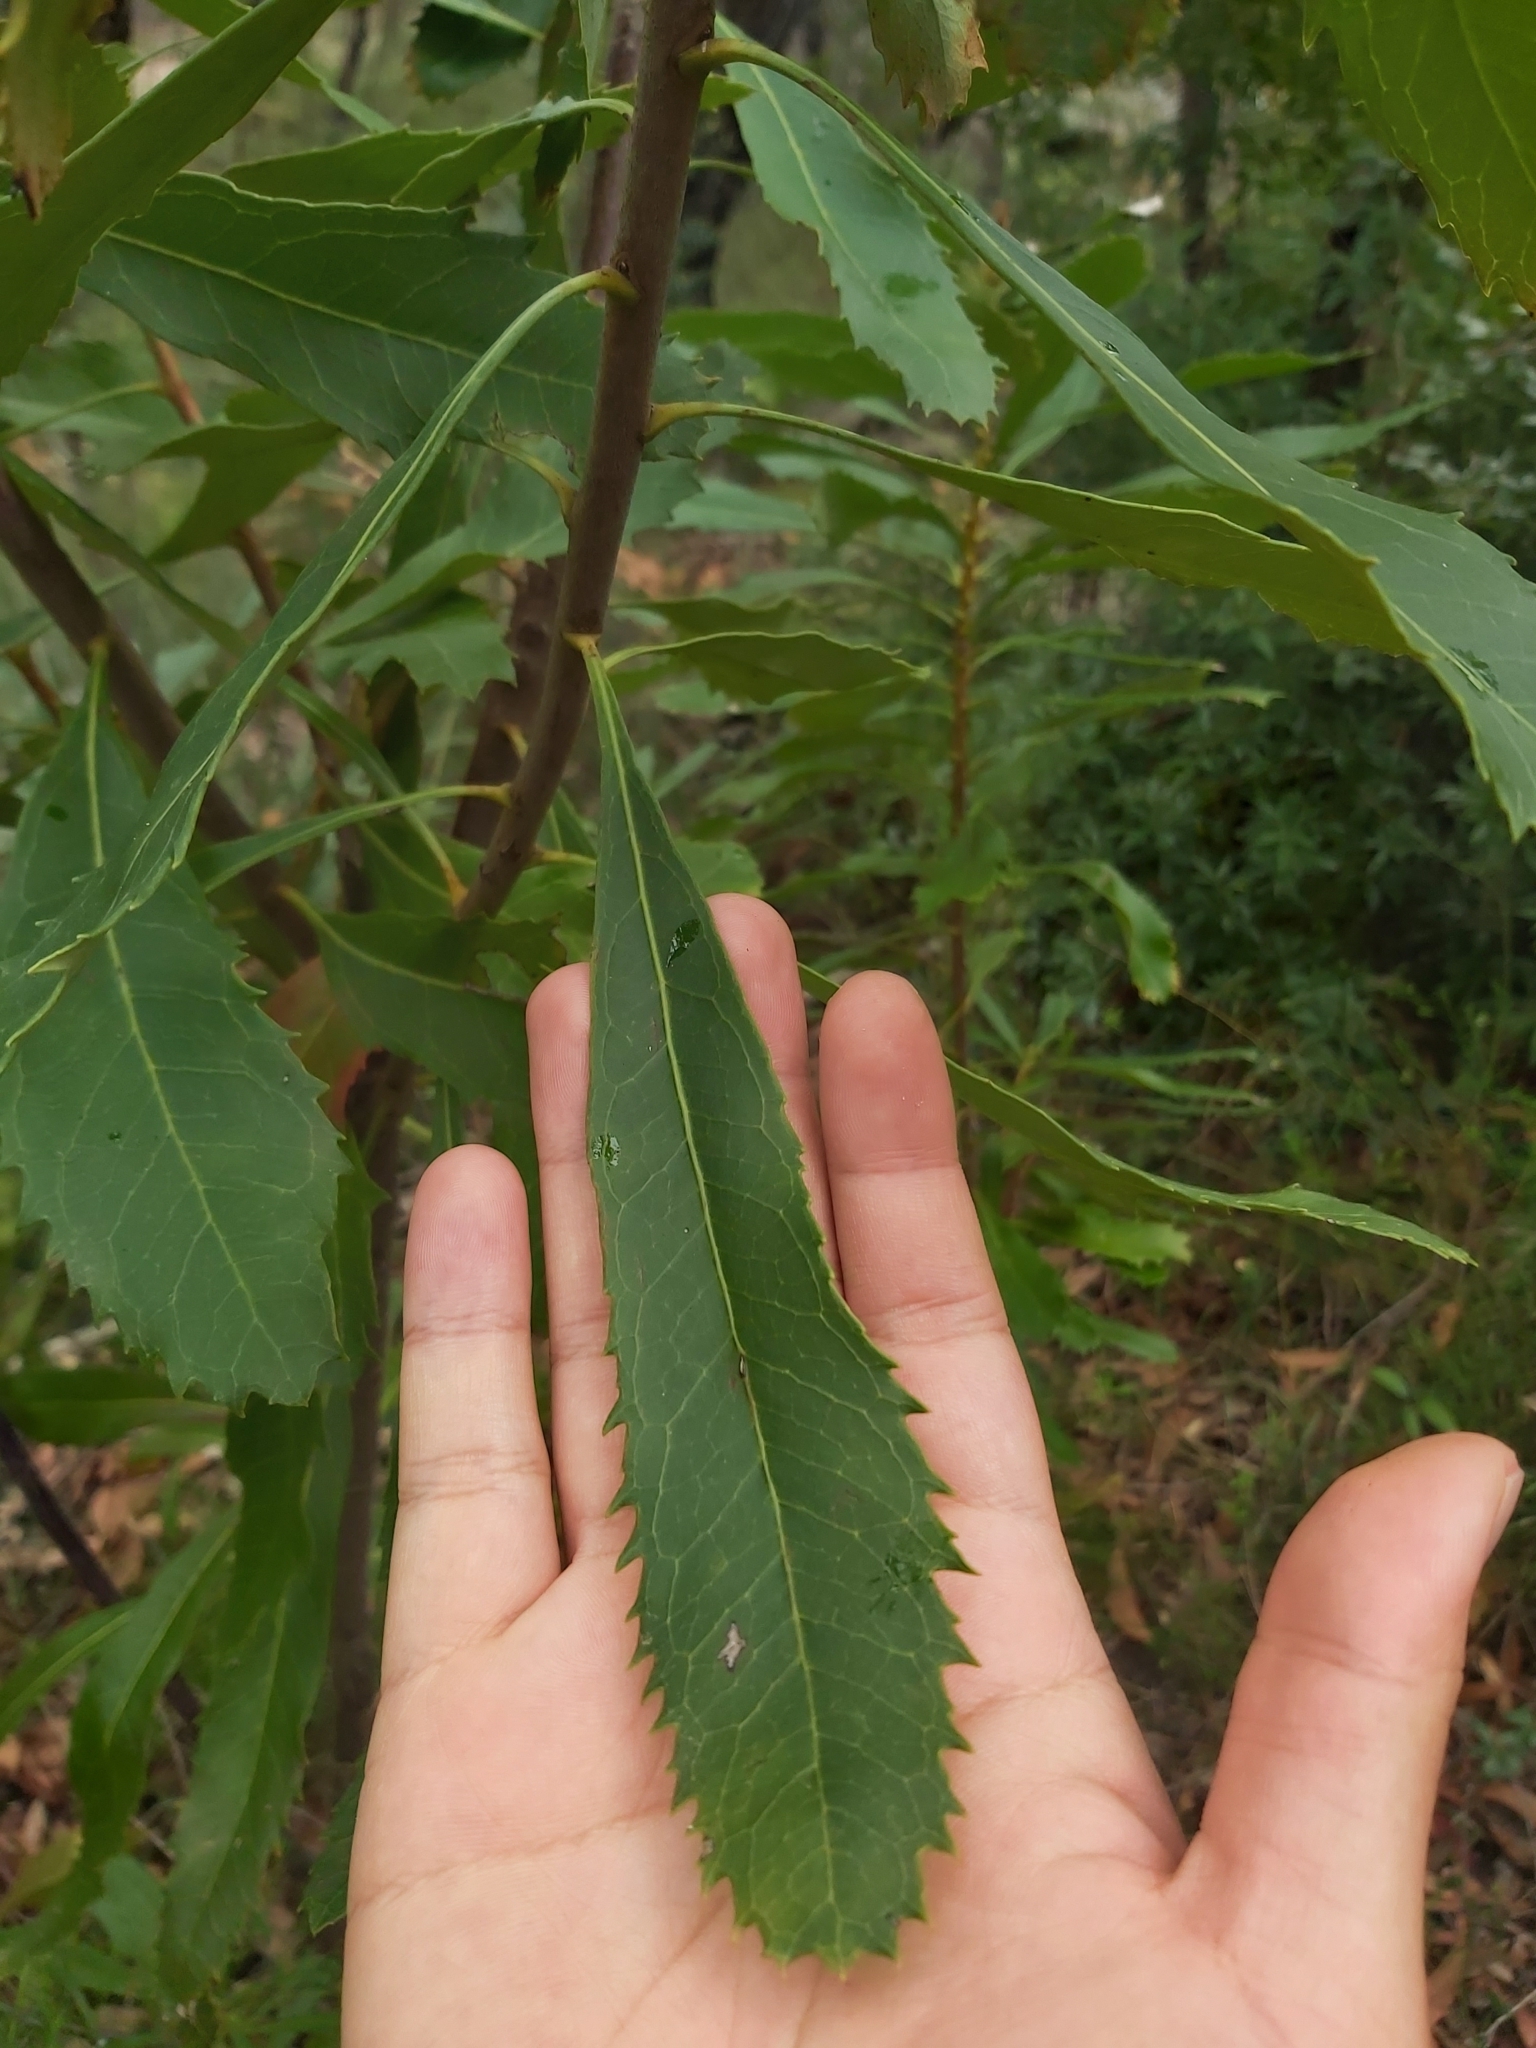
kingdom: Plantae
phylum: Tracheophyta
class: Magnoliopsida
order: Proteales
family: Proteaceae
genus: Telopea
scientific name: Telopea speciosissima
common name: New south wales waratah
